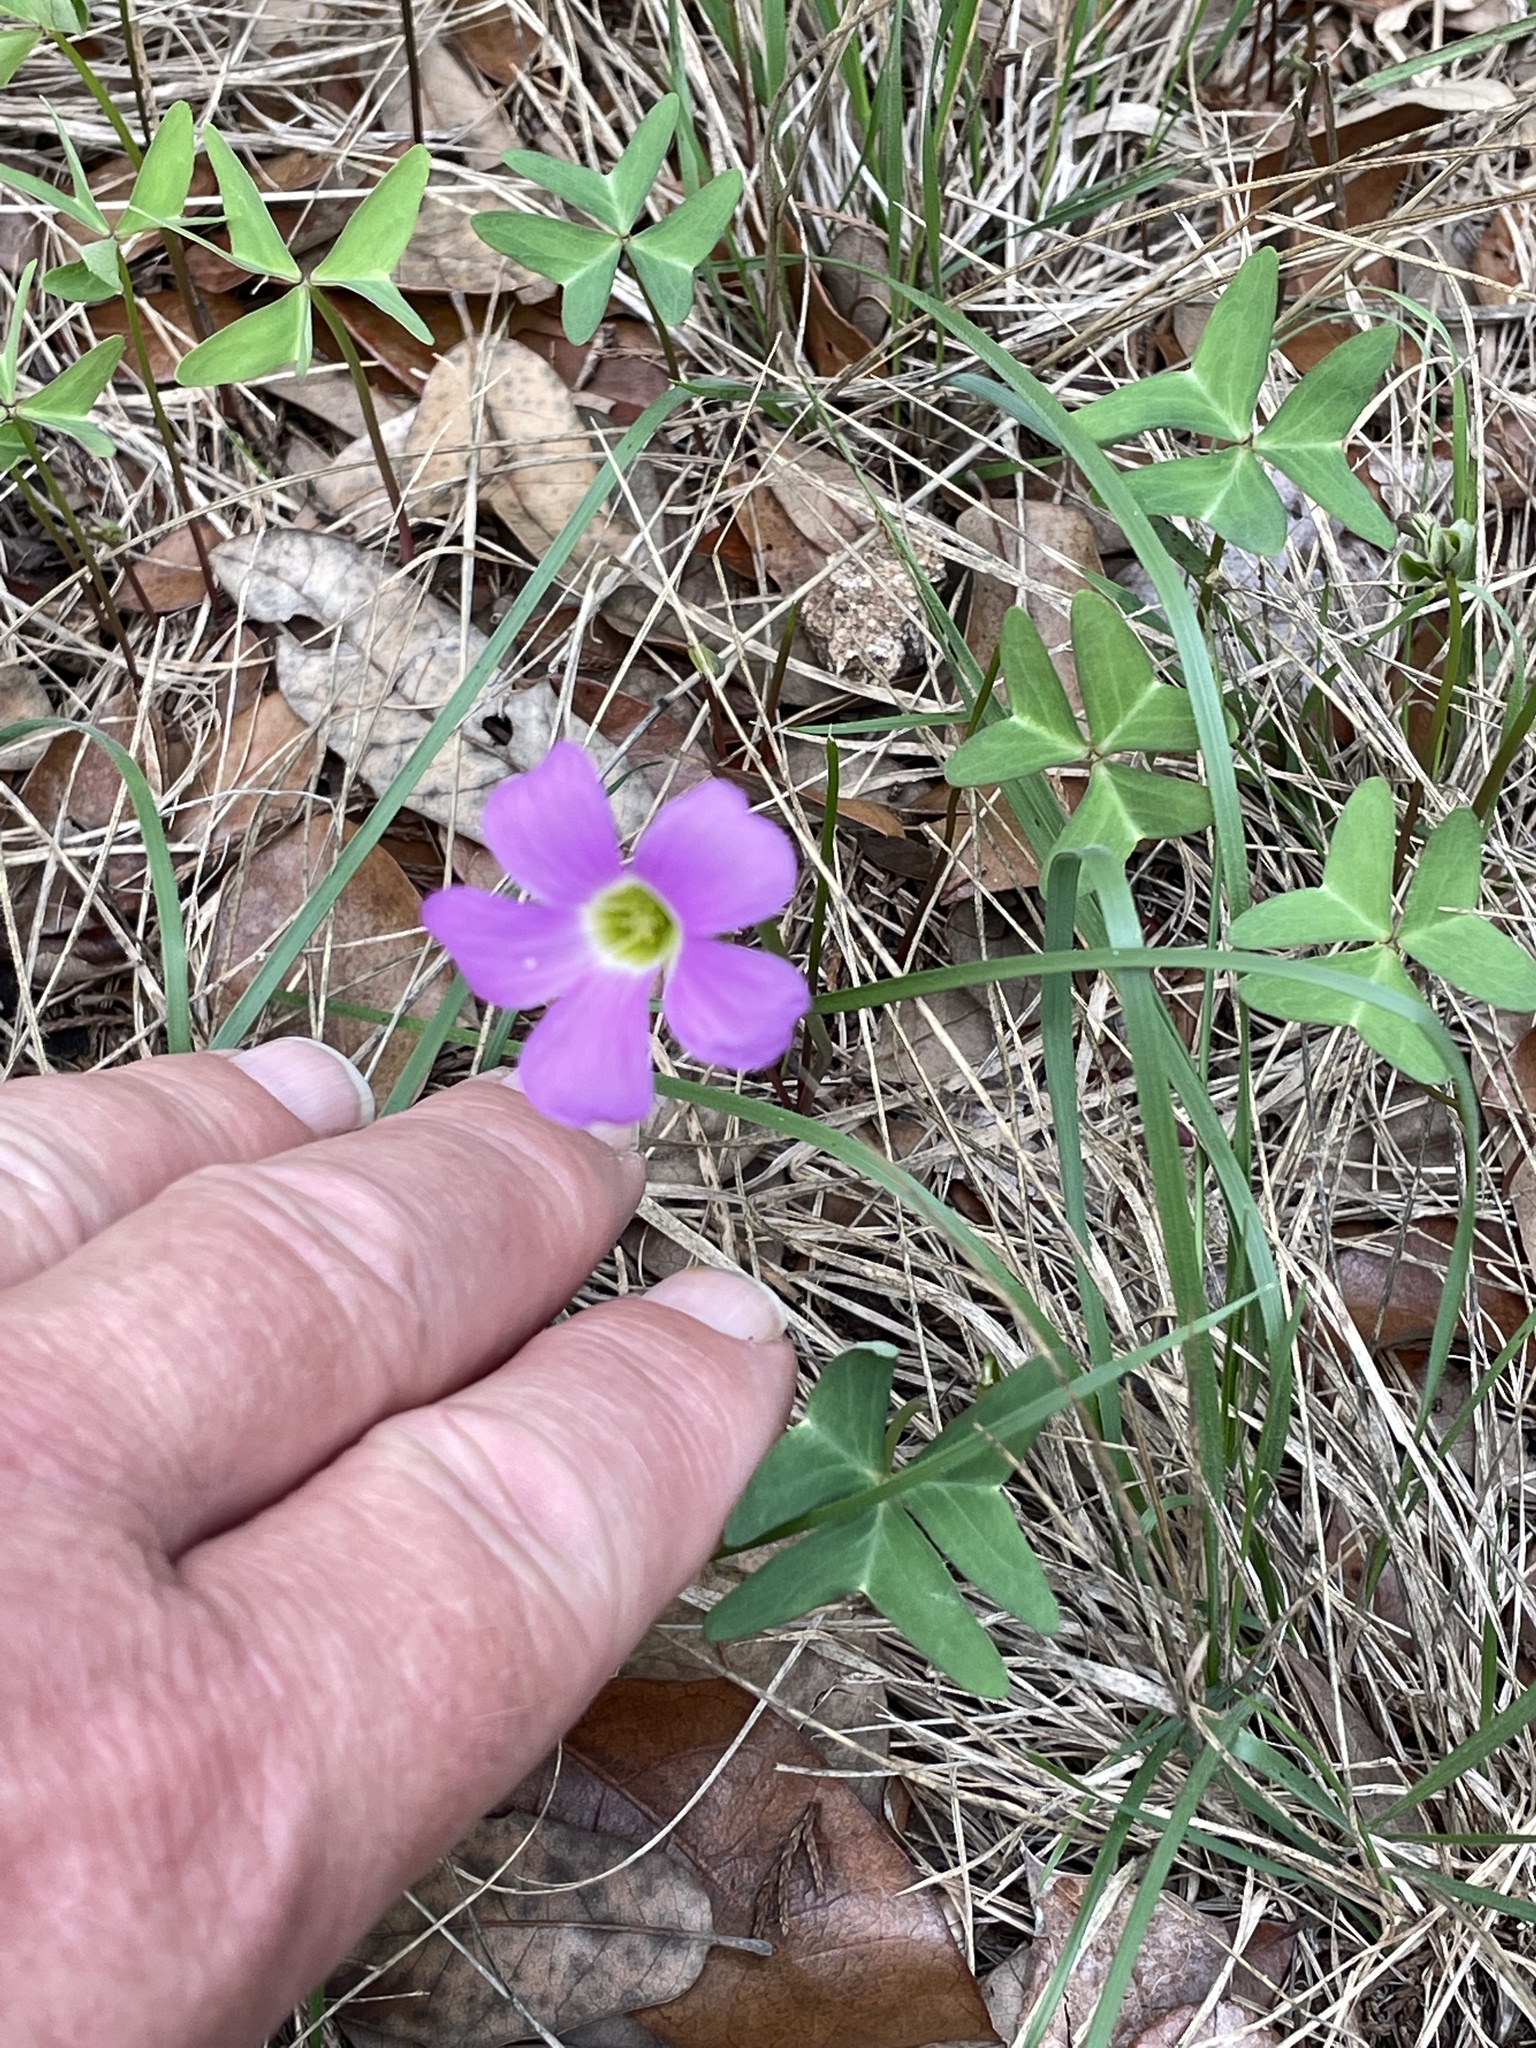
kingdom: Plantae
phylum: Tracheophyta
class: Magnoliopsida
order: Oxalidales
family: Oxalidaceae
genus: Oxalis
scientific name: Oxalis drummondii
